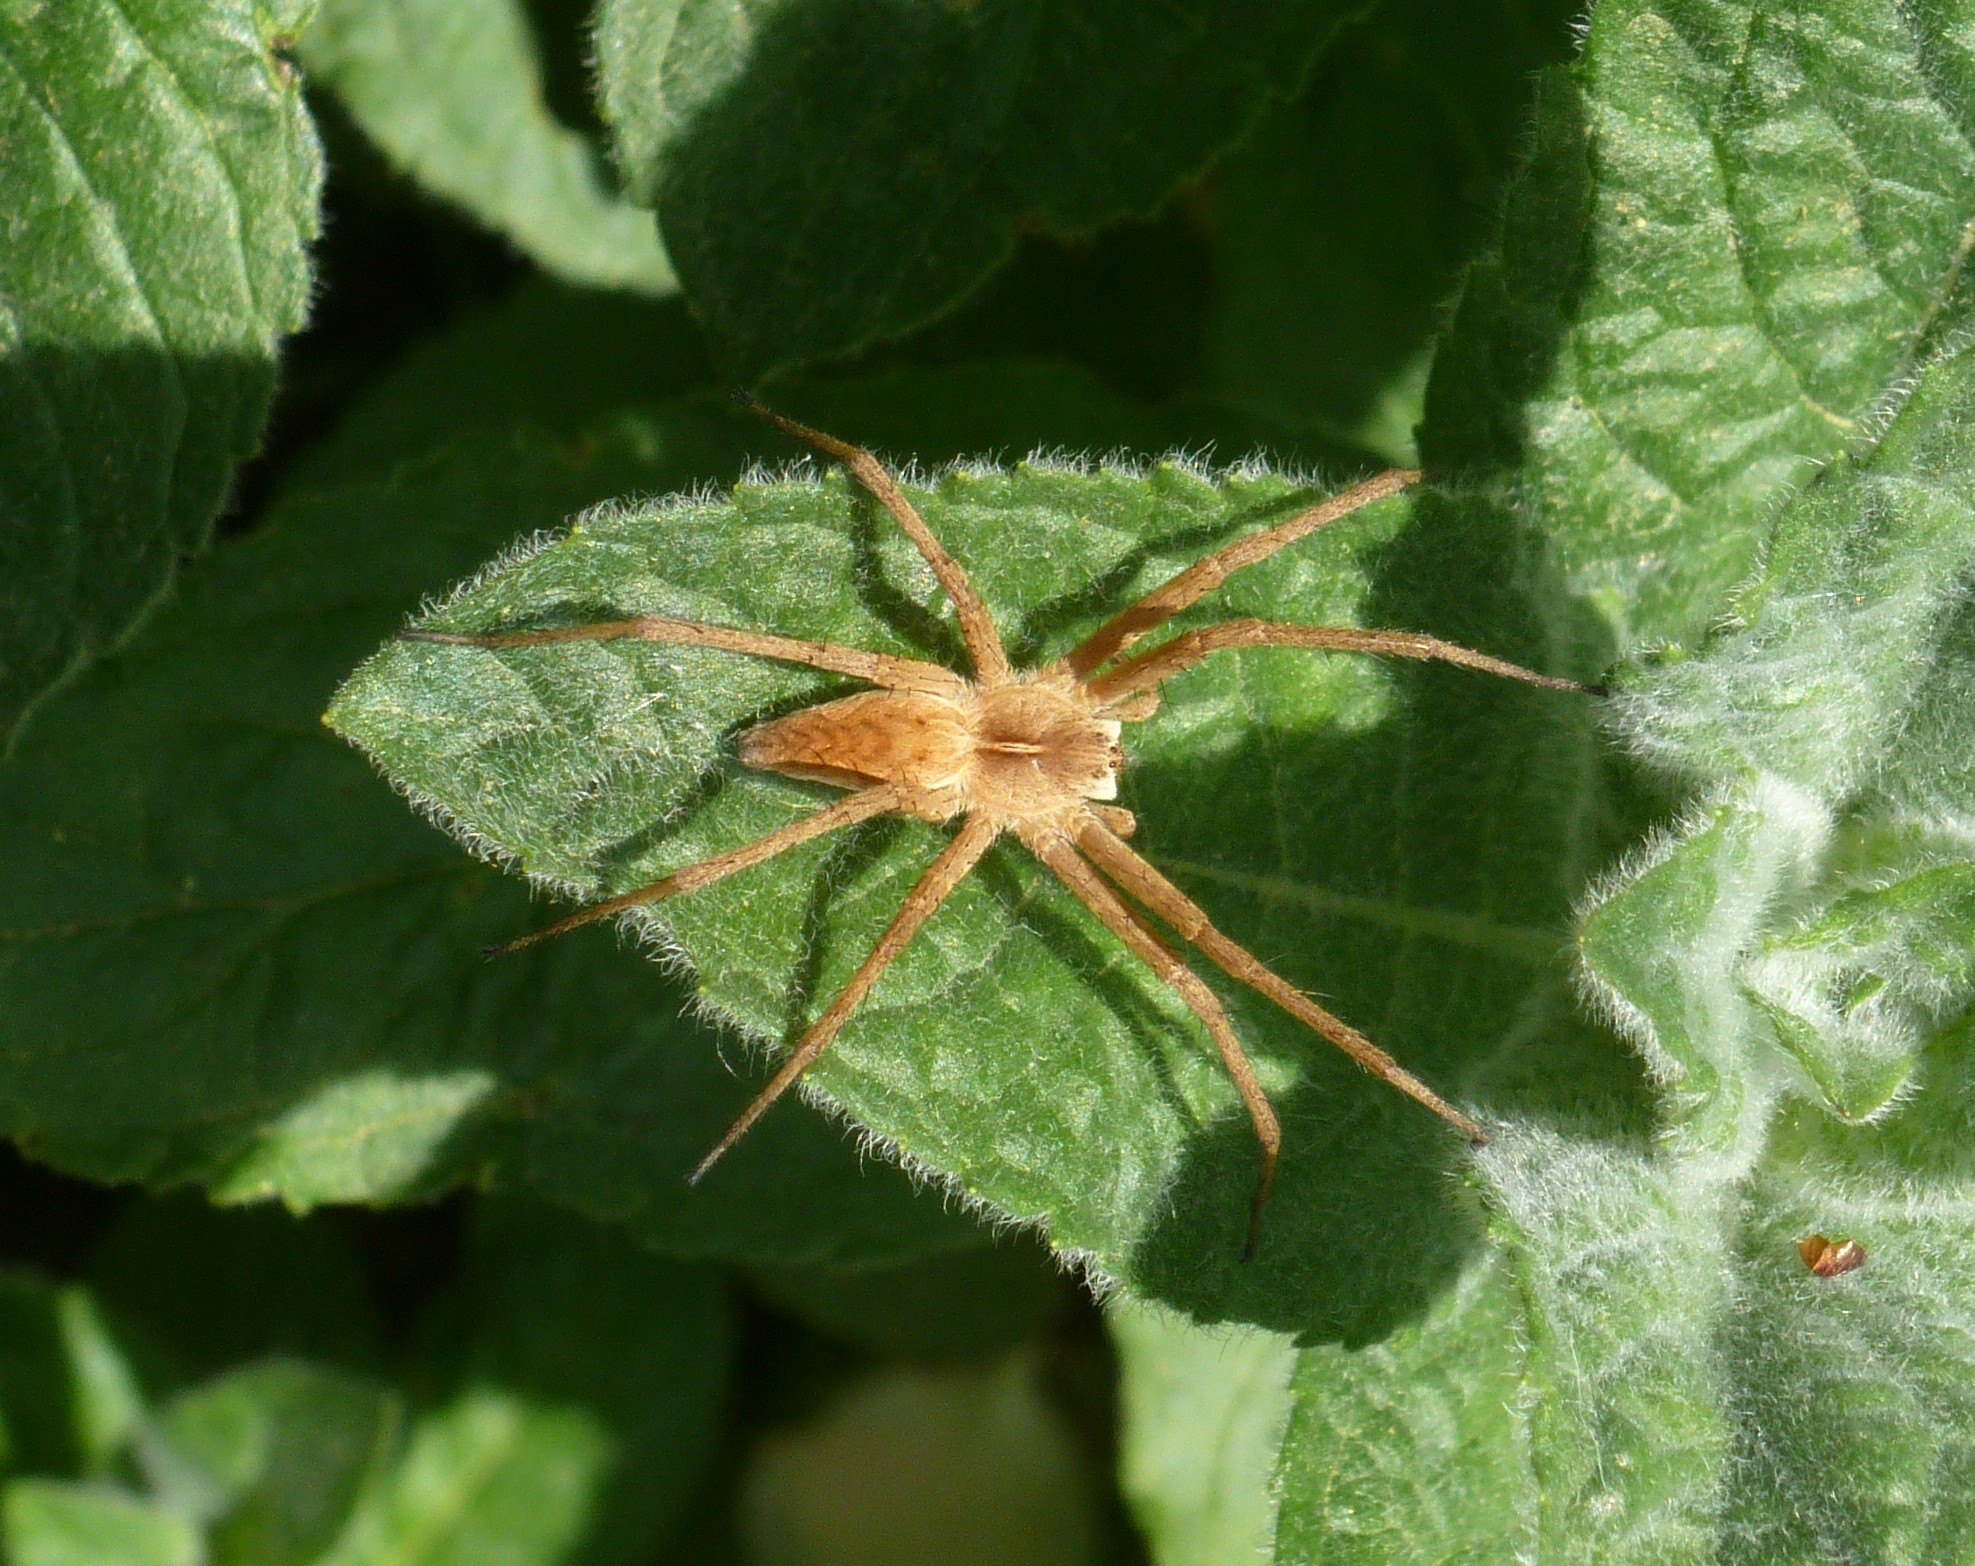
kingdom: Animalia
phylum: Arthropoda
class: Arachnida
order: Araneae
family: Pisauridae
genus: Pisaura
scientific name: Pisaura
